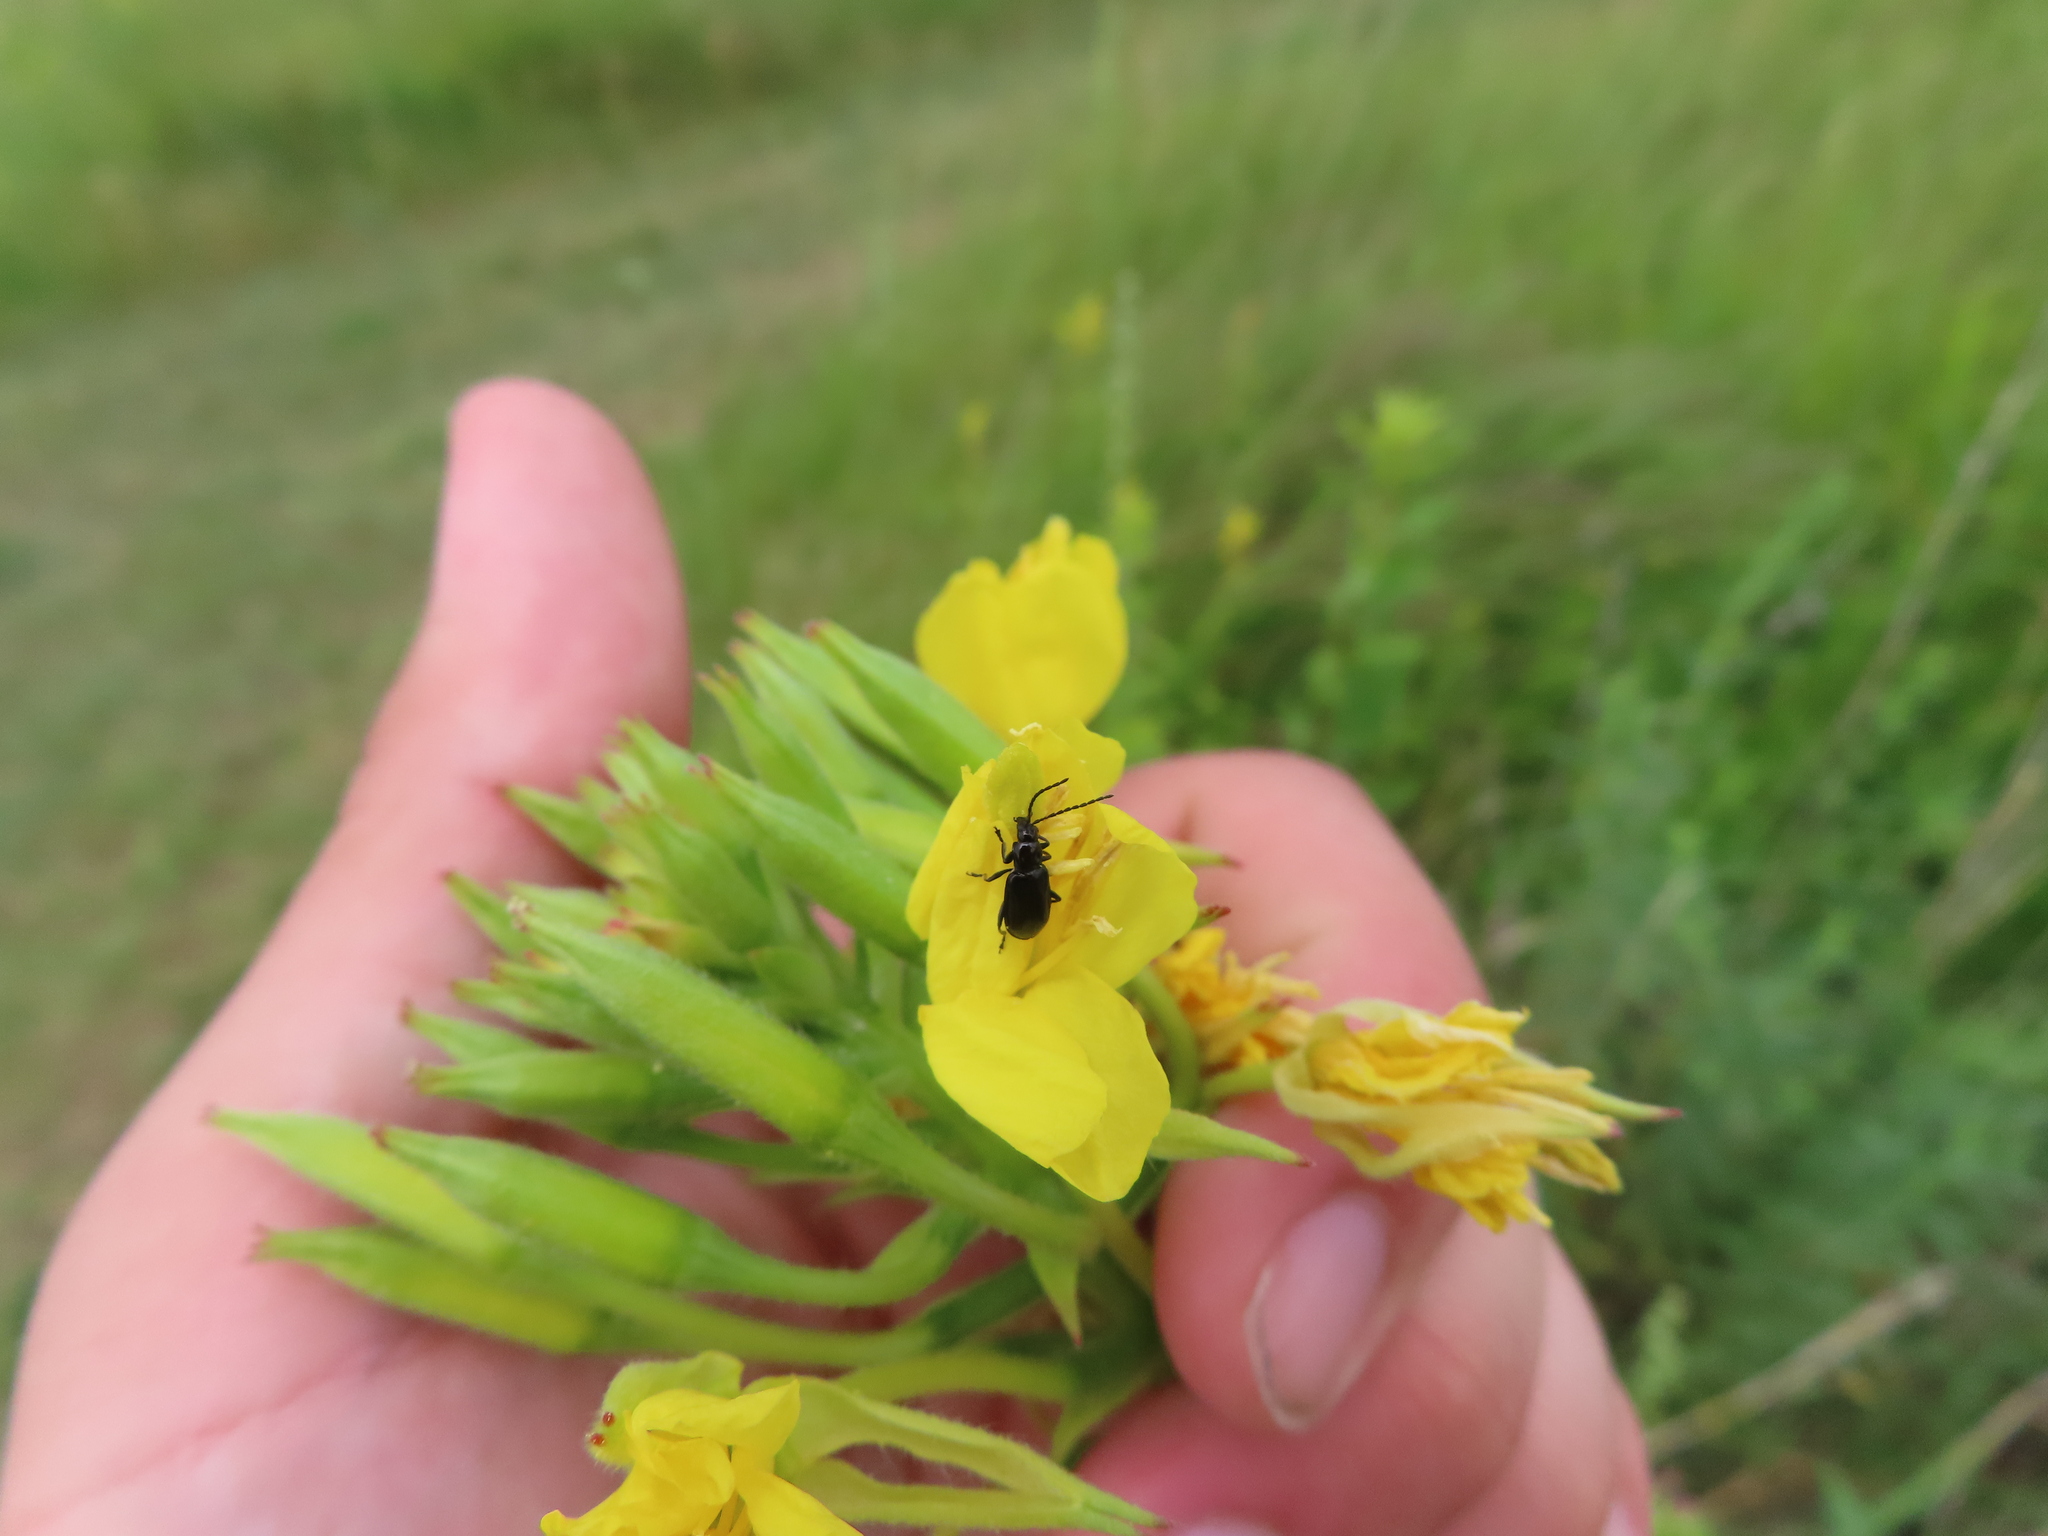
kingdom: Animalia
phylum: Arthropoda
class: Insecta
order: Coleoptera
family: Chrysomelidae
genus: Diabrotica
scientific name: Diabrotica cristata
